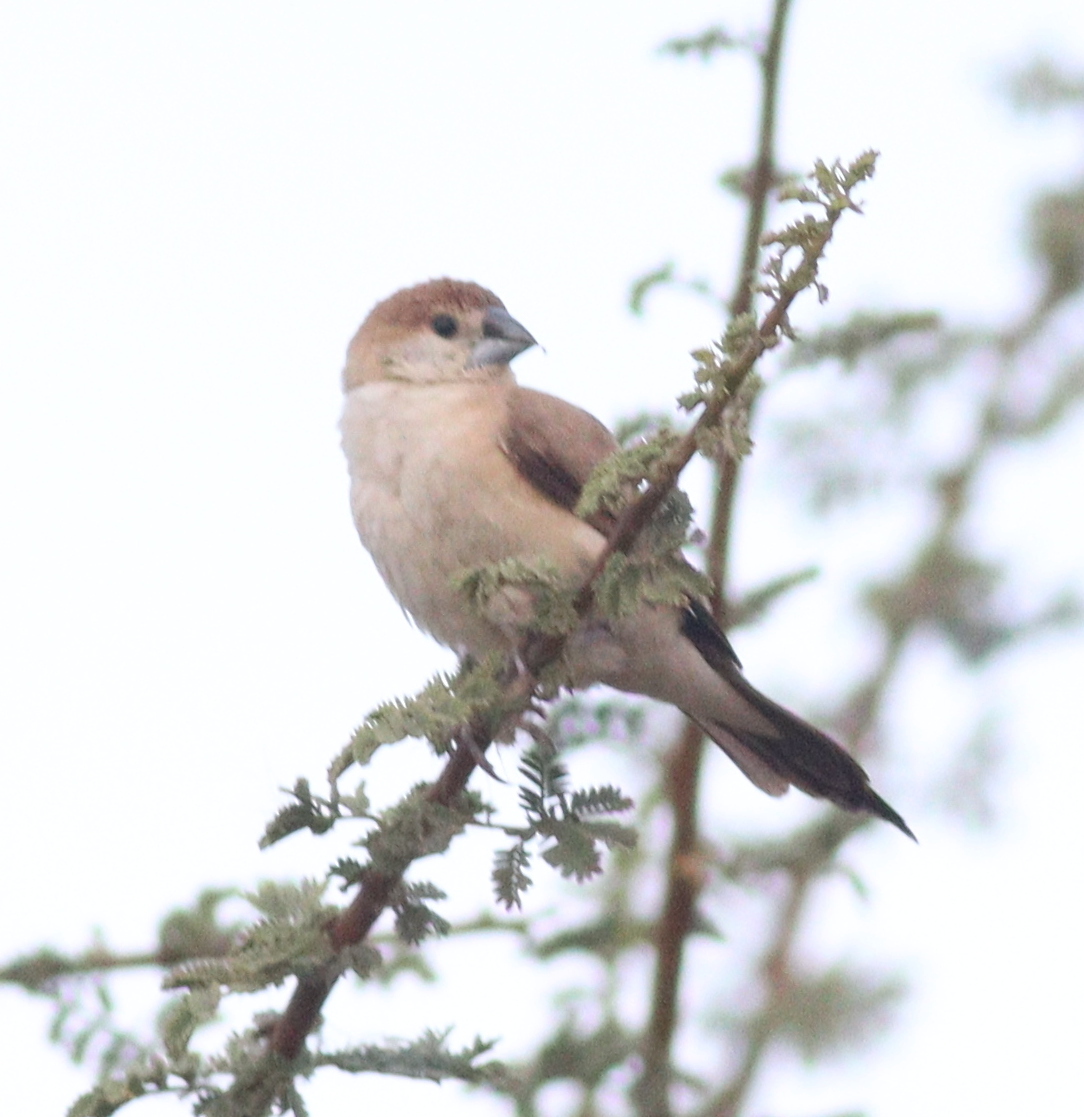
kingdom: Animalia
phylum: Chordata
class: Aves
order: Passeriformes
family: Estrildidae
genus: Euodice
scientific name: Euodice malabarica
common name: Indian silverbill
